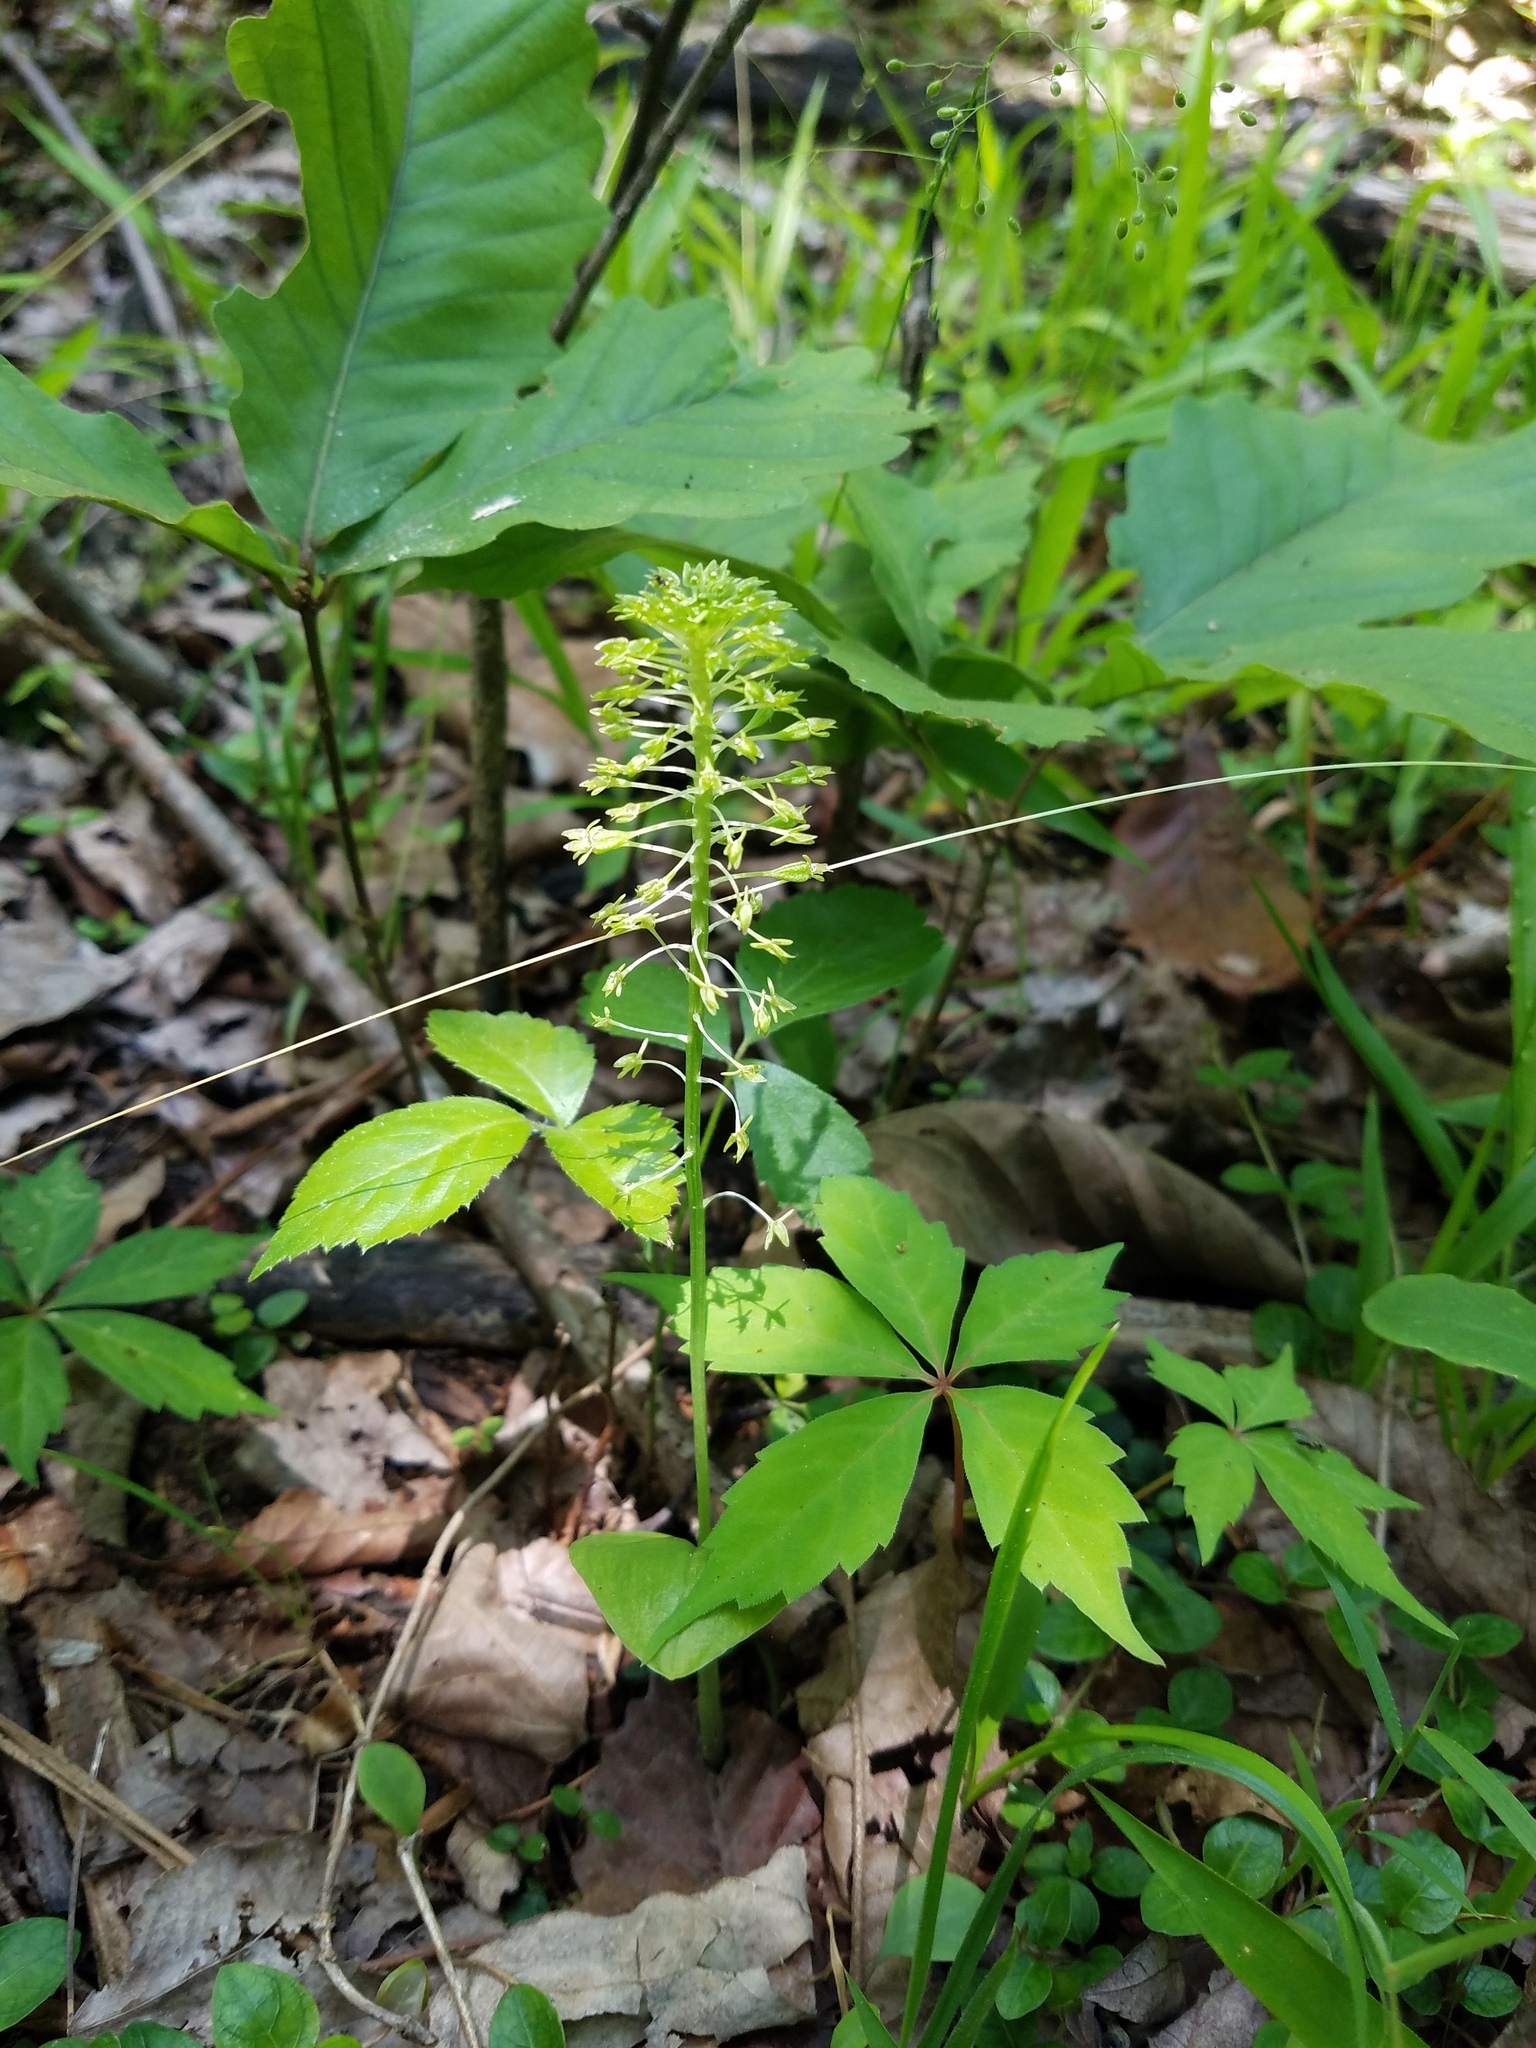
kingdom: Plantae
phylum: Tracheophyta
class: Liliopsida
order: Asparagales
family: Orchidaceae
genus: Malaxis
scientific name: Malaxis unifolia
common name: Green adder's-mouth
